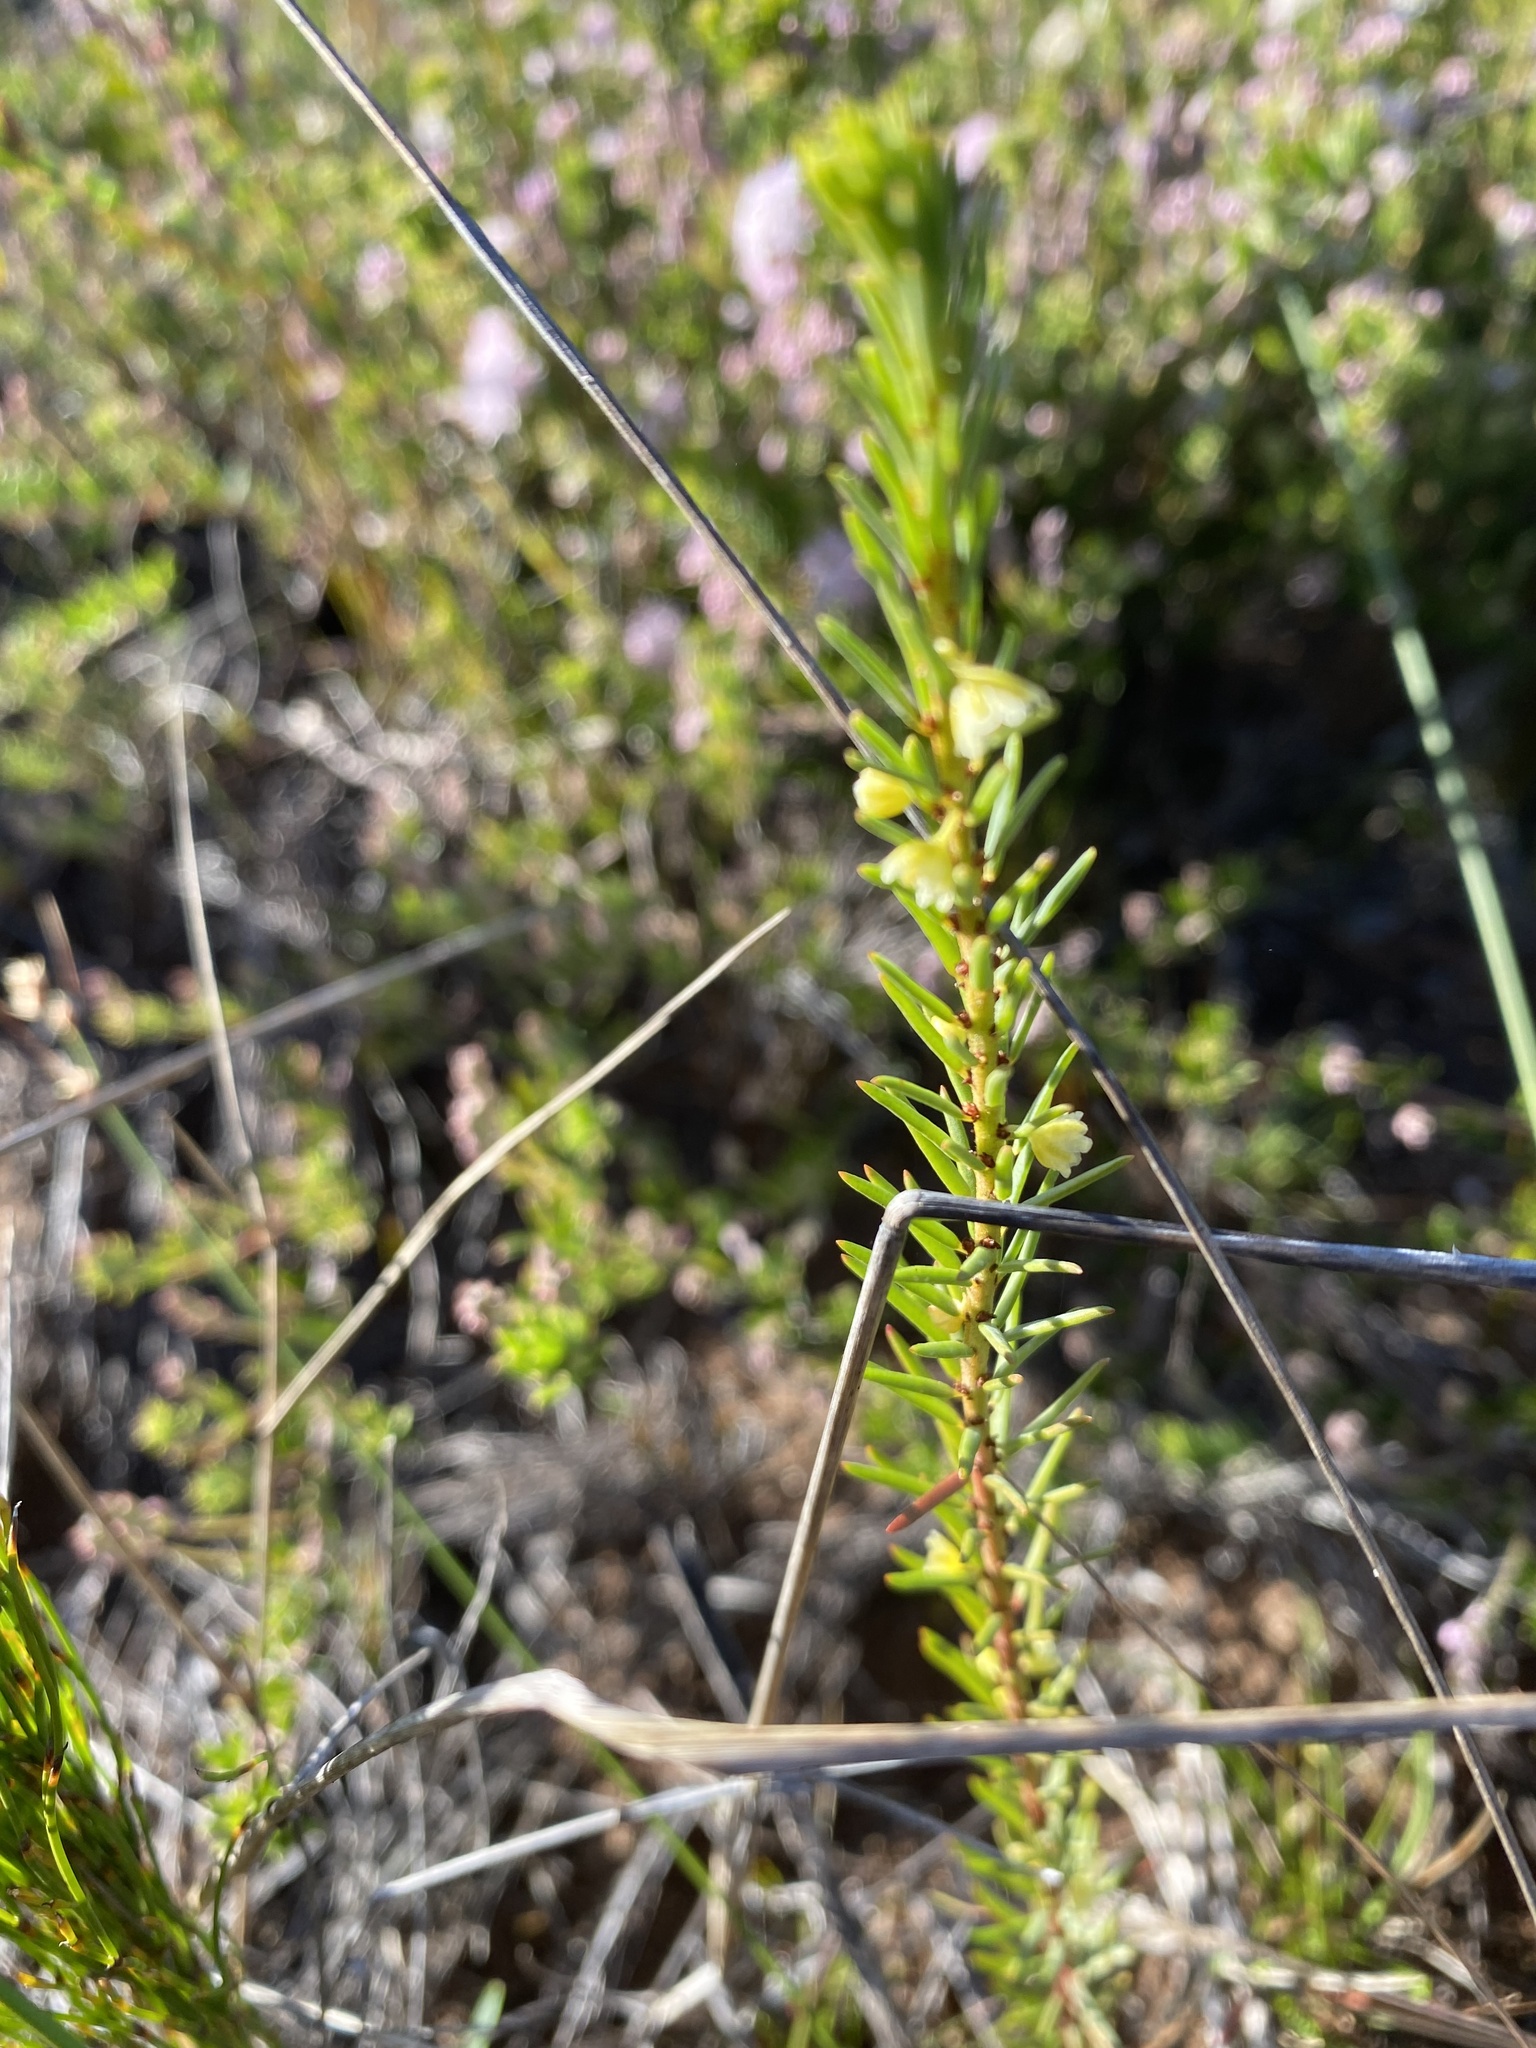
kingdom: Plantae
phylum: Tracheophyta
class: Magnoliopsida
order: Malpighiales
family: Peraceae
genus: Clutia
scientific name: Clutia ericoides
